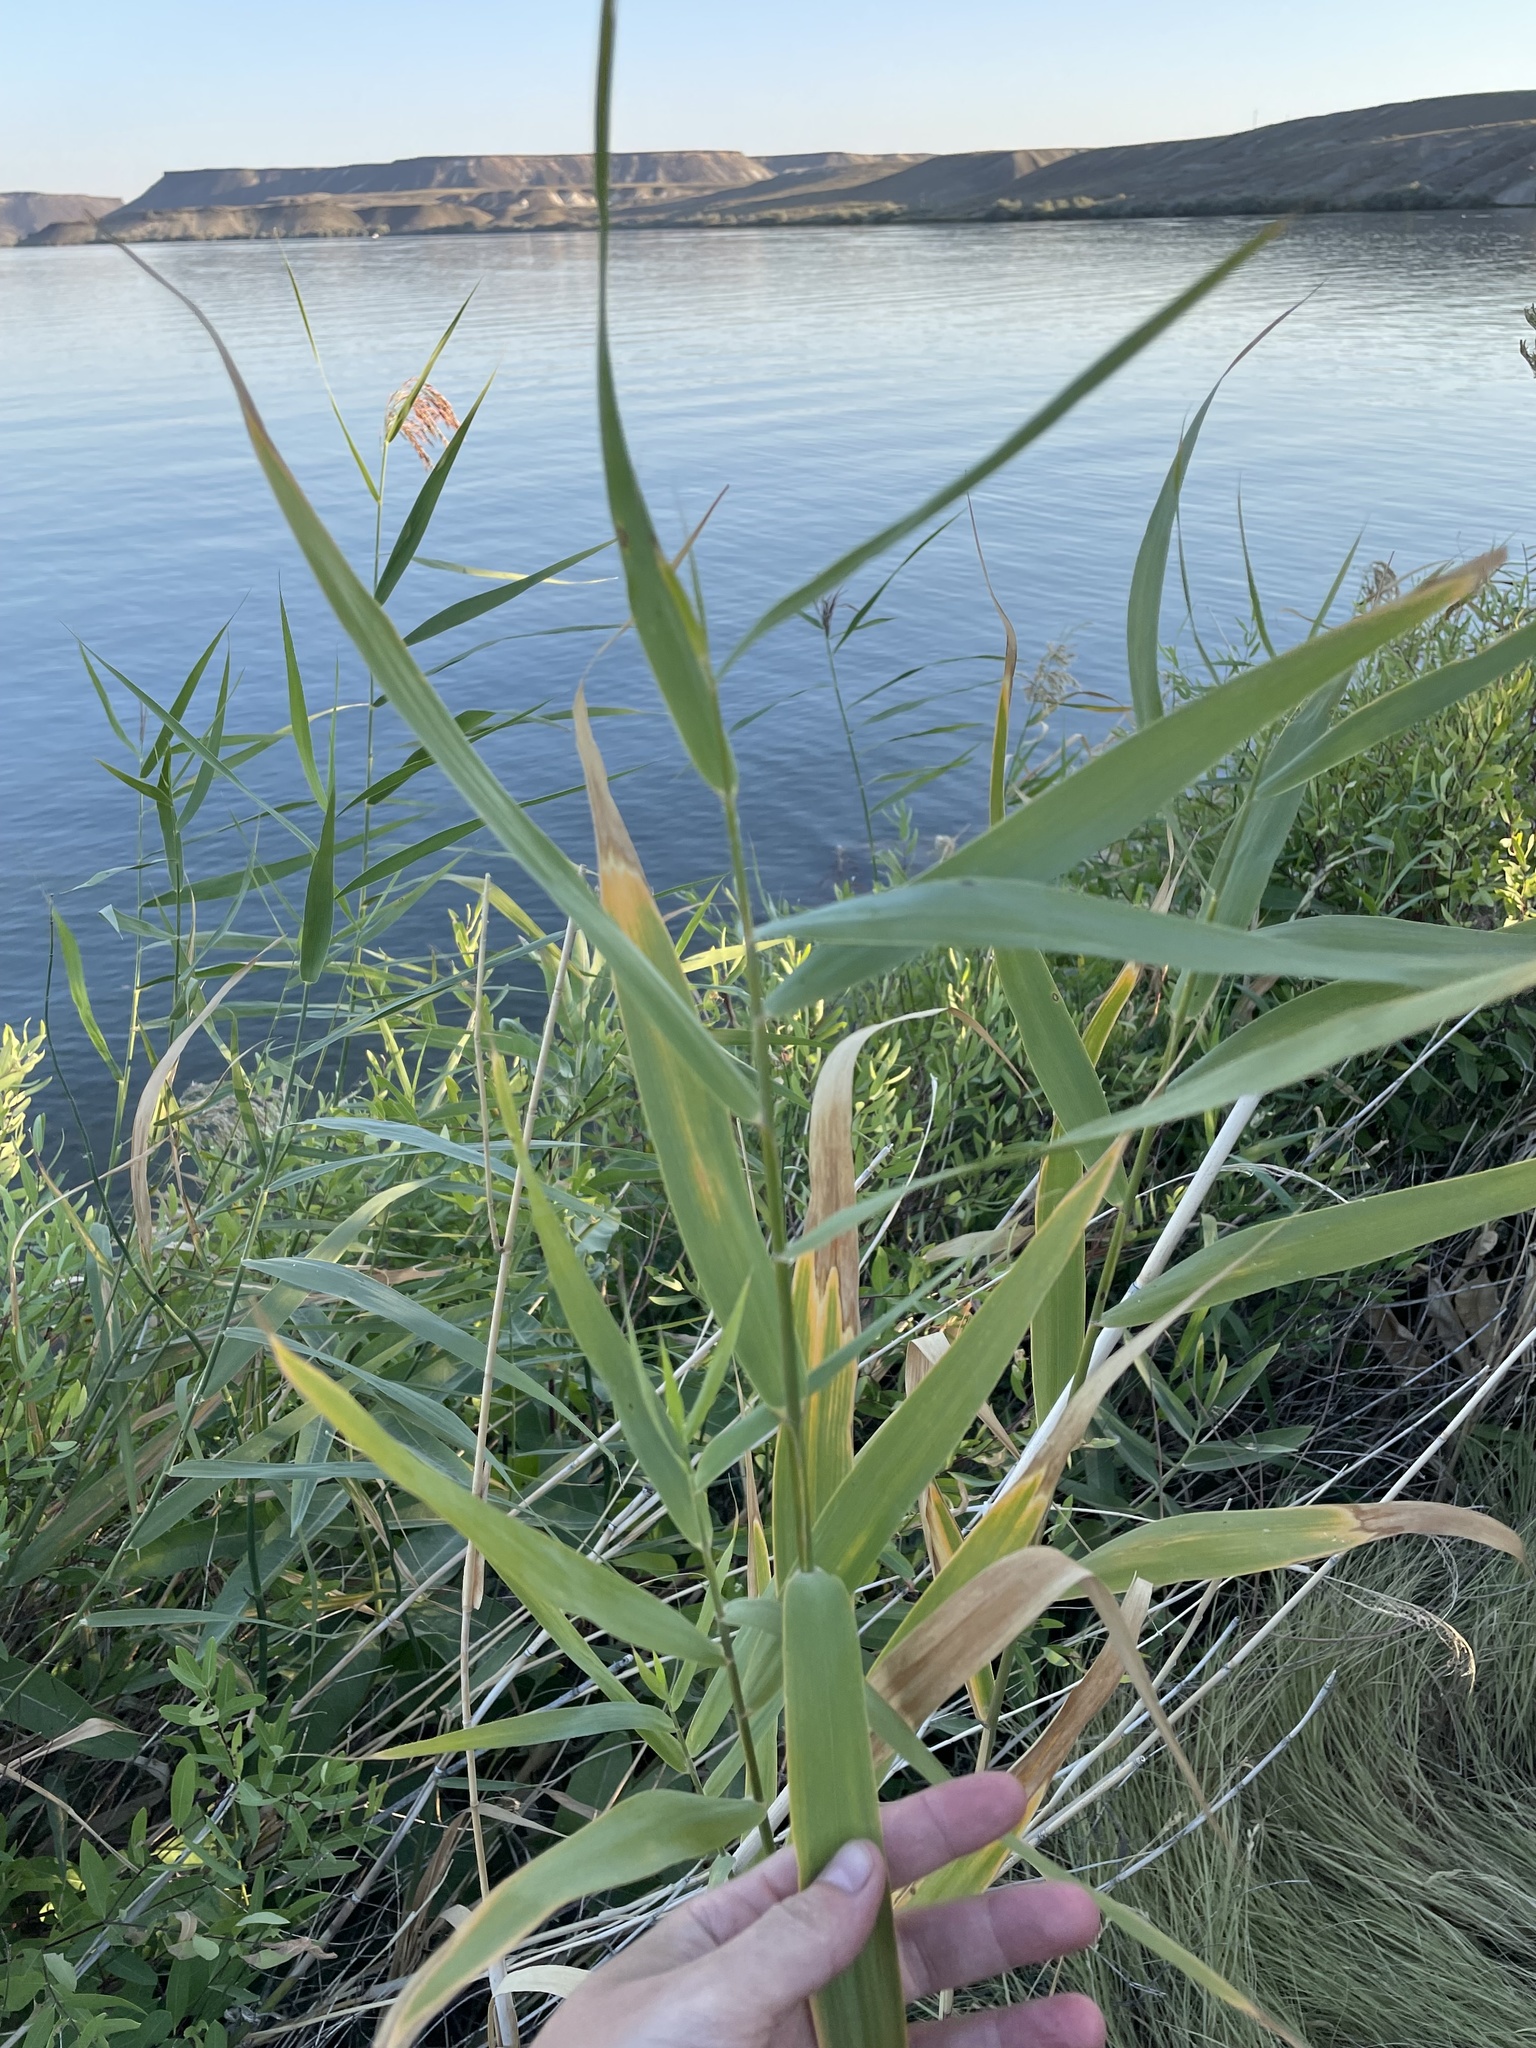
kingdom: Plantae
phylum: Tracheophyta
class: Liliopsida
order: Poales
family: Poaceae
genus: Phragmites
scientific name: Phragmites australis
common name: Common reed
